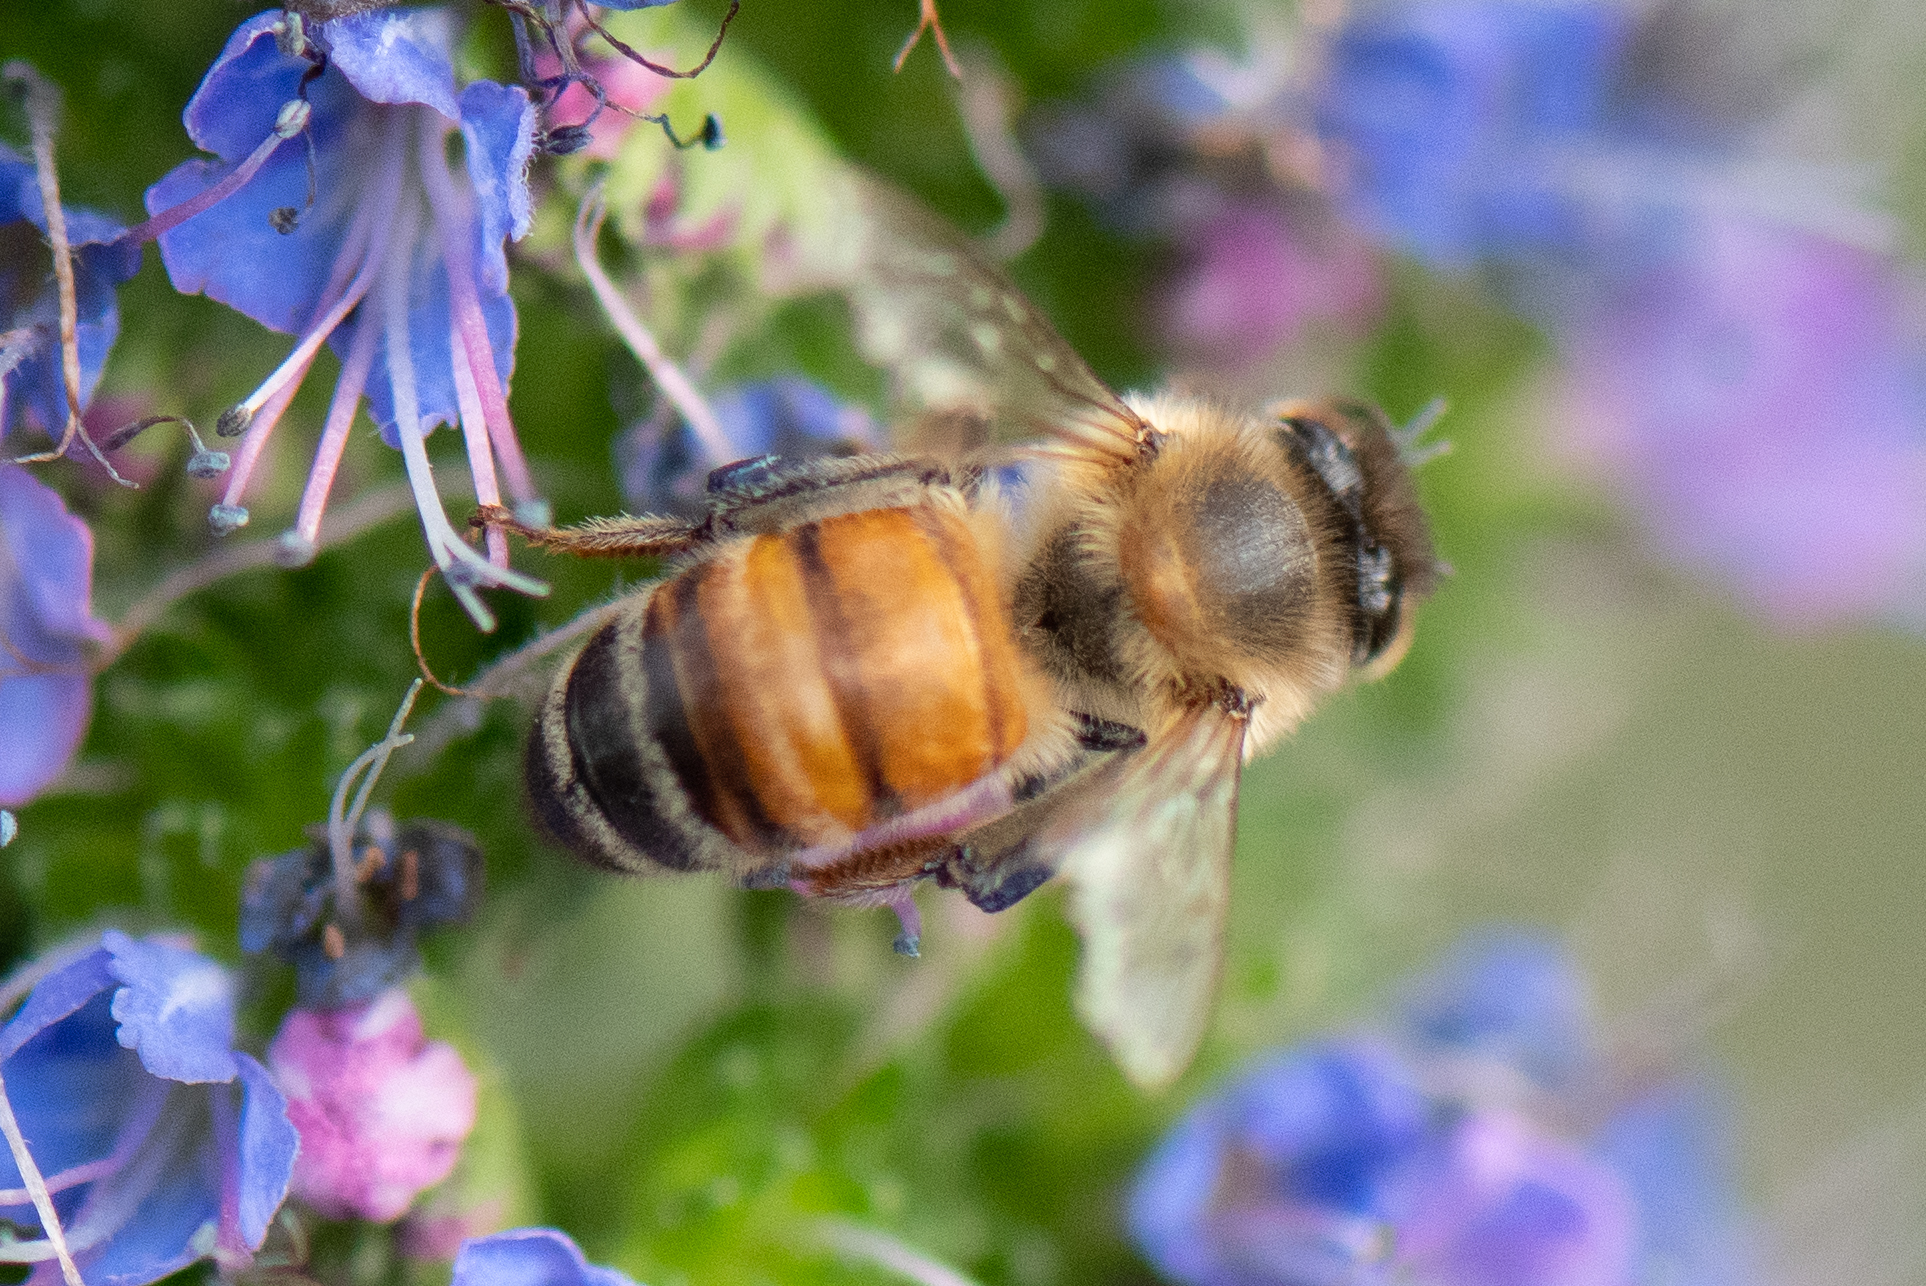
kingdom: Animalia
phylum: Arthropoda
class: Insecta
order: Hymenoptera
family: Apidae
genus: Apis
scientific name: Apis mellifera
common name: Honey bee
